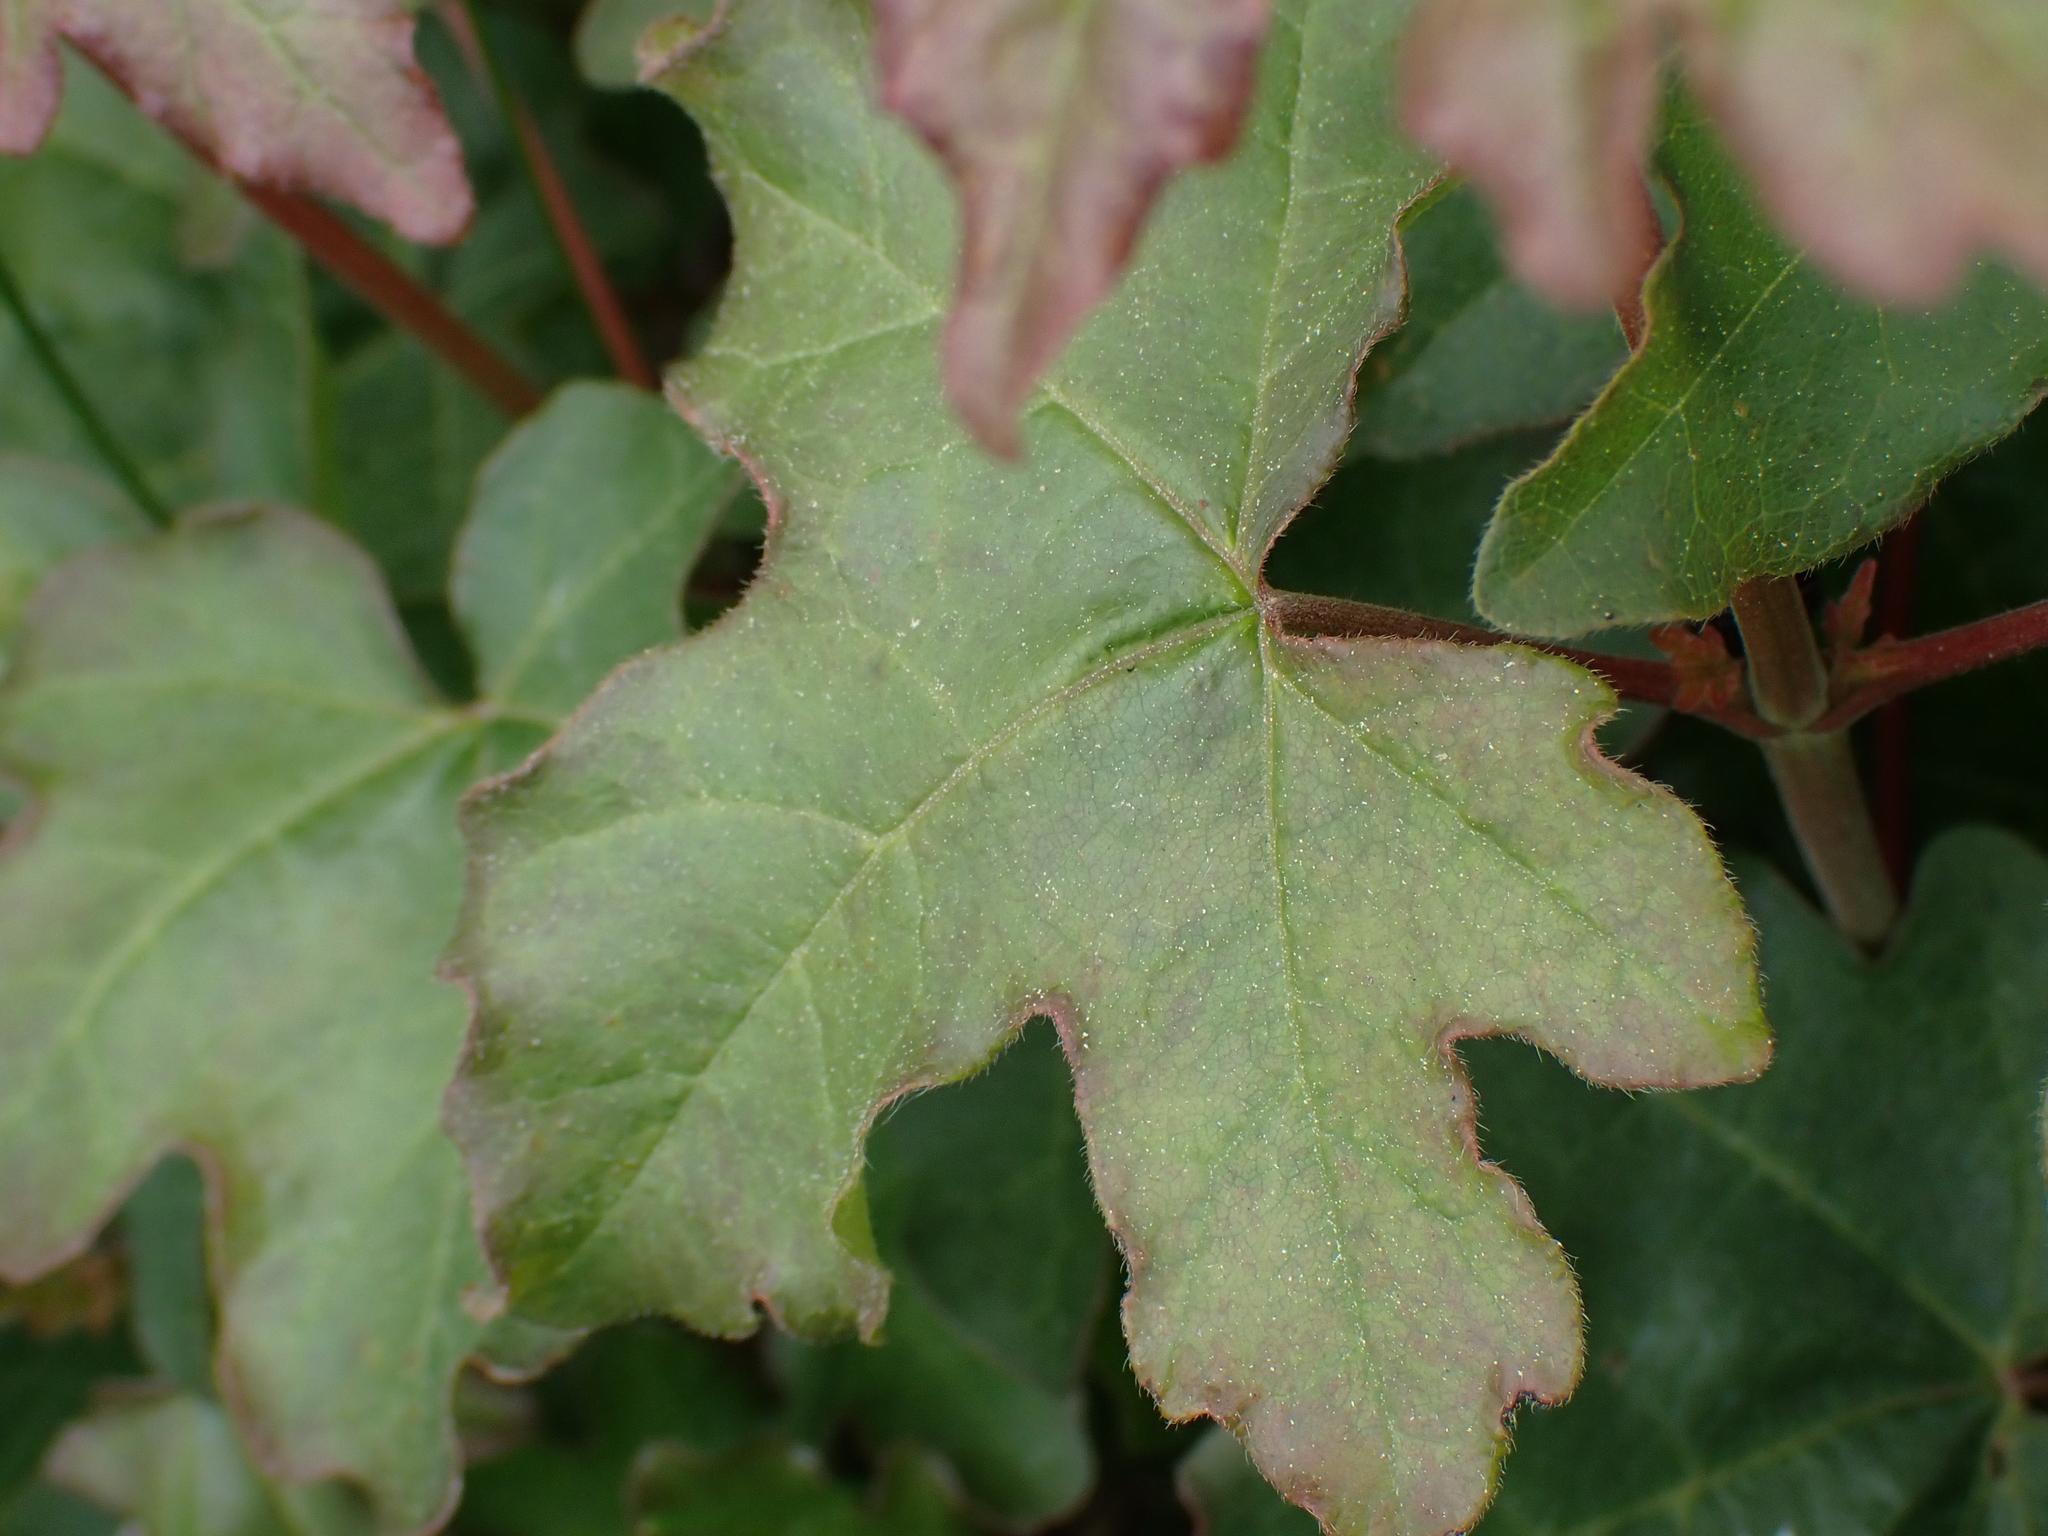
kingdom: Plantae
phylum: Tracheophyta
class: Magnoliopsida
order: Sapindales
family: Sapindaceae
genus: Acer
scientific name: Acer campestre
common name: Field maple
